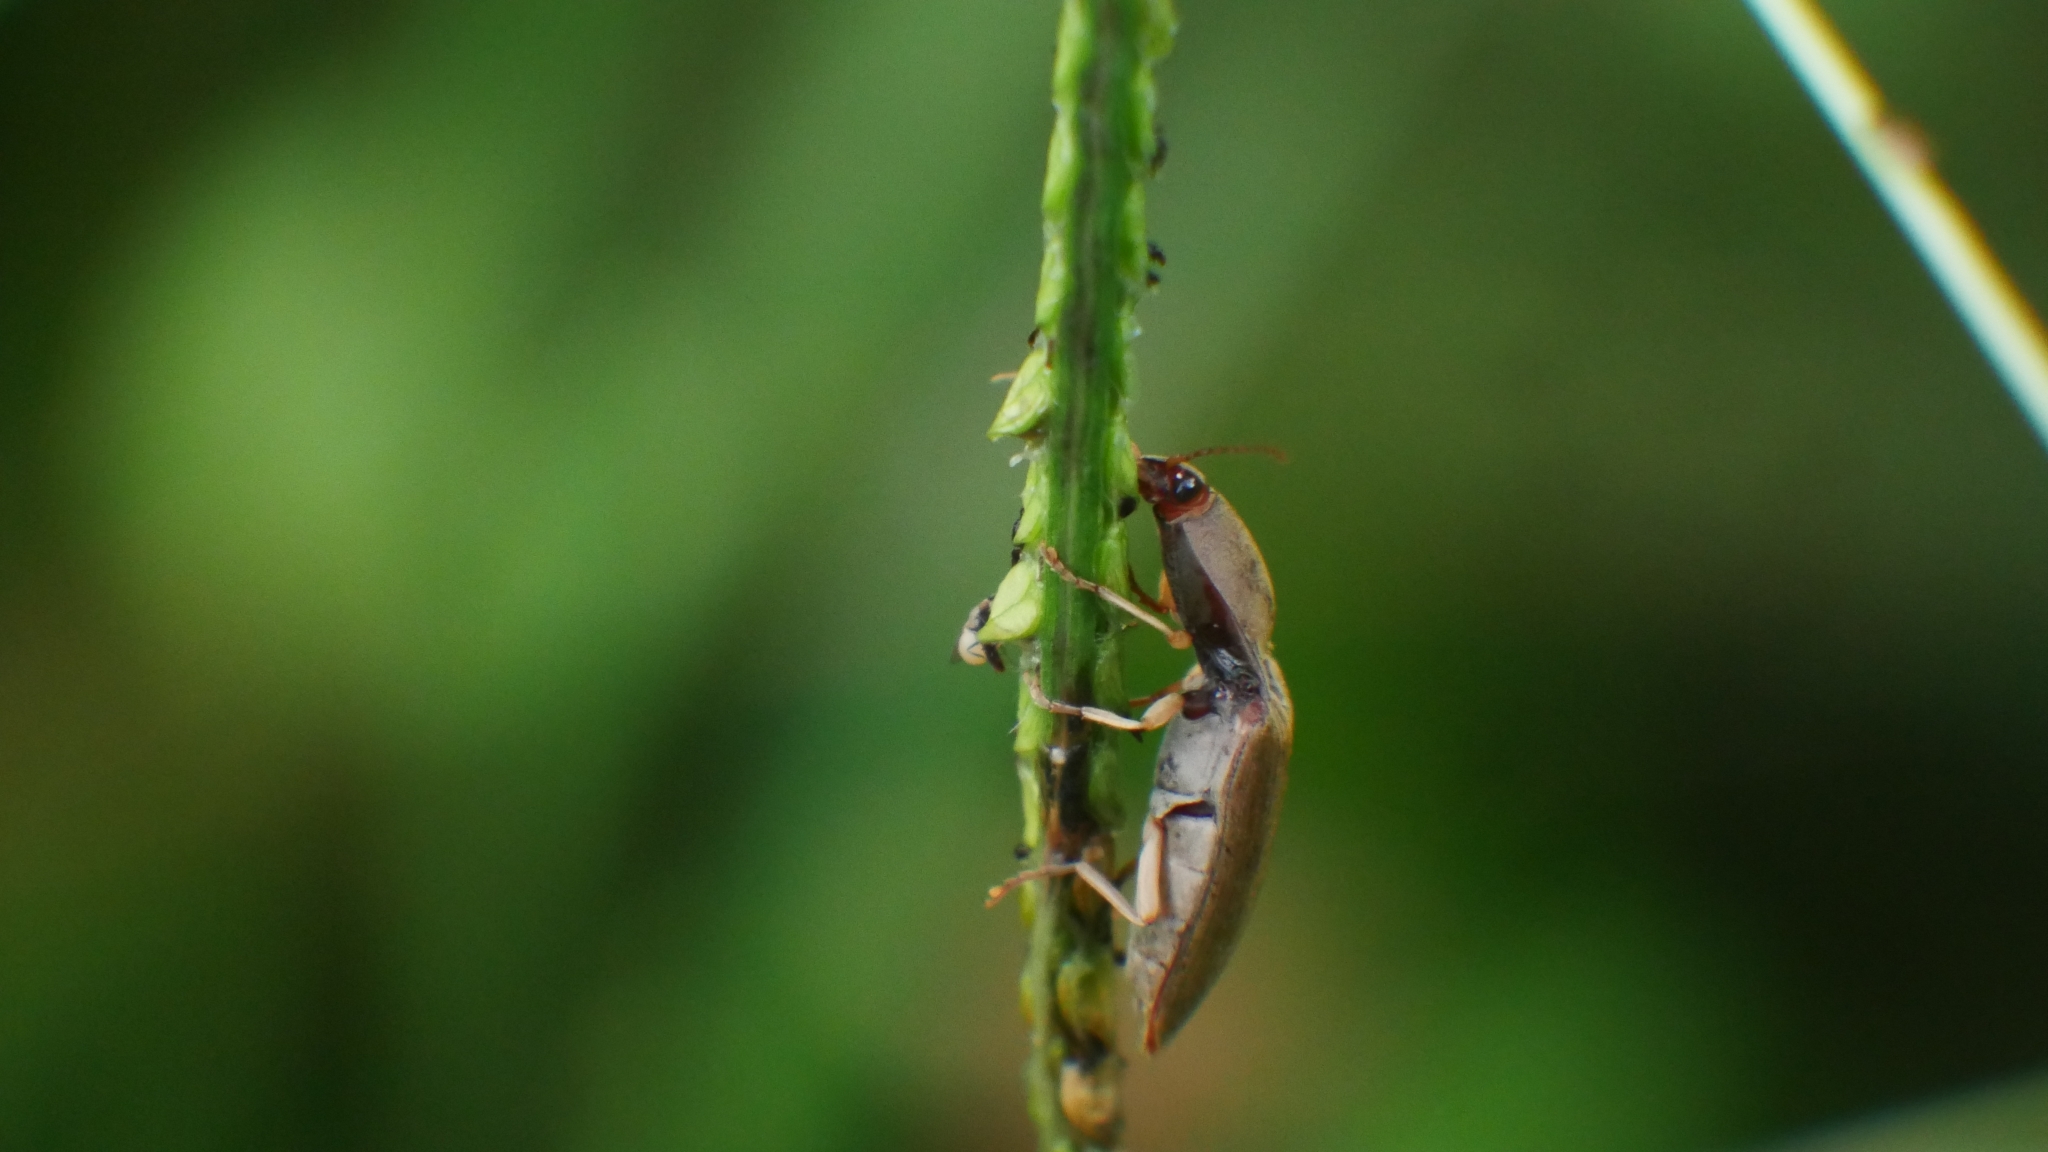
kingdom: Animalia
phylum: Arthropoda
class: Insecta
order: Coleoptera
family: Elateridae
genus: Monocrepidius
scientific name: Monocrepidius lividus
